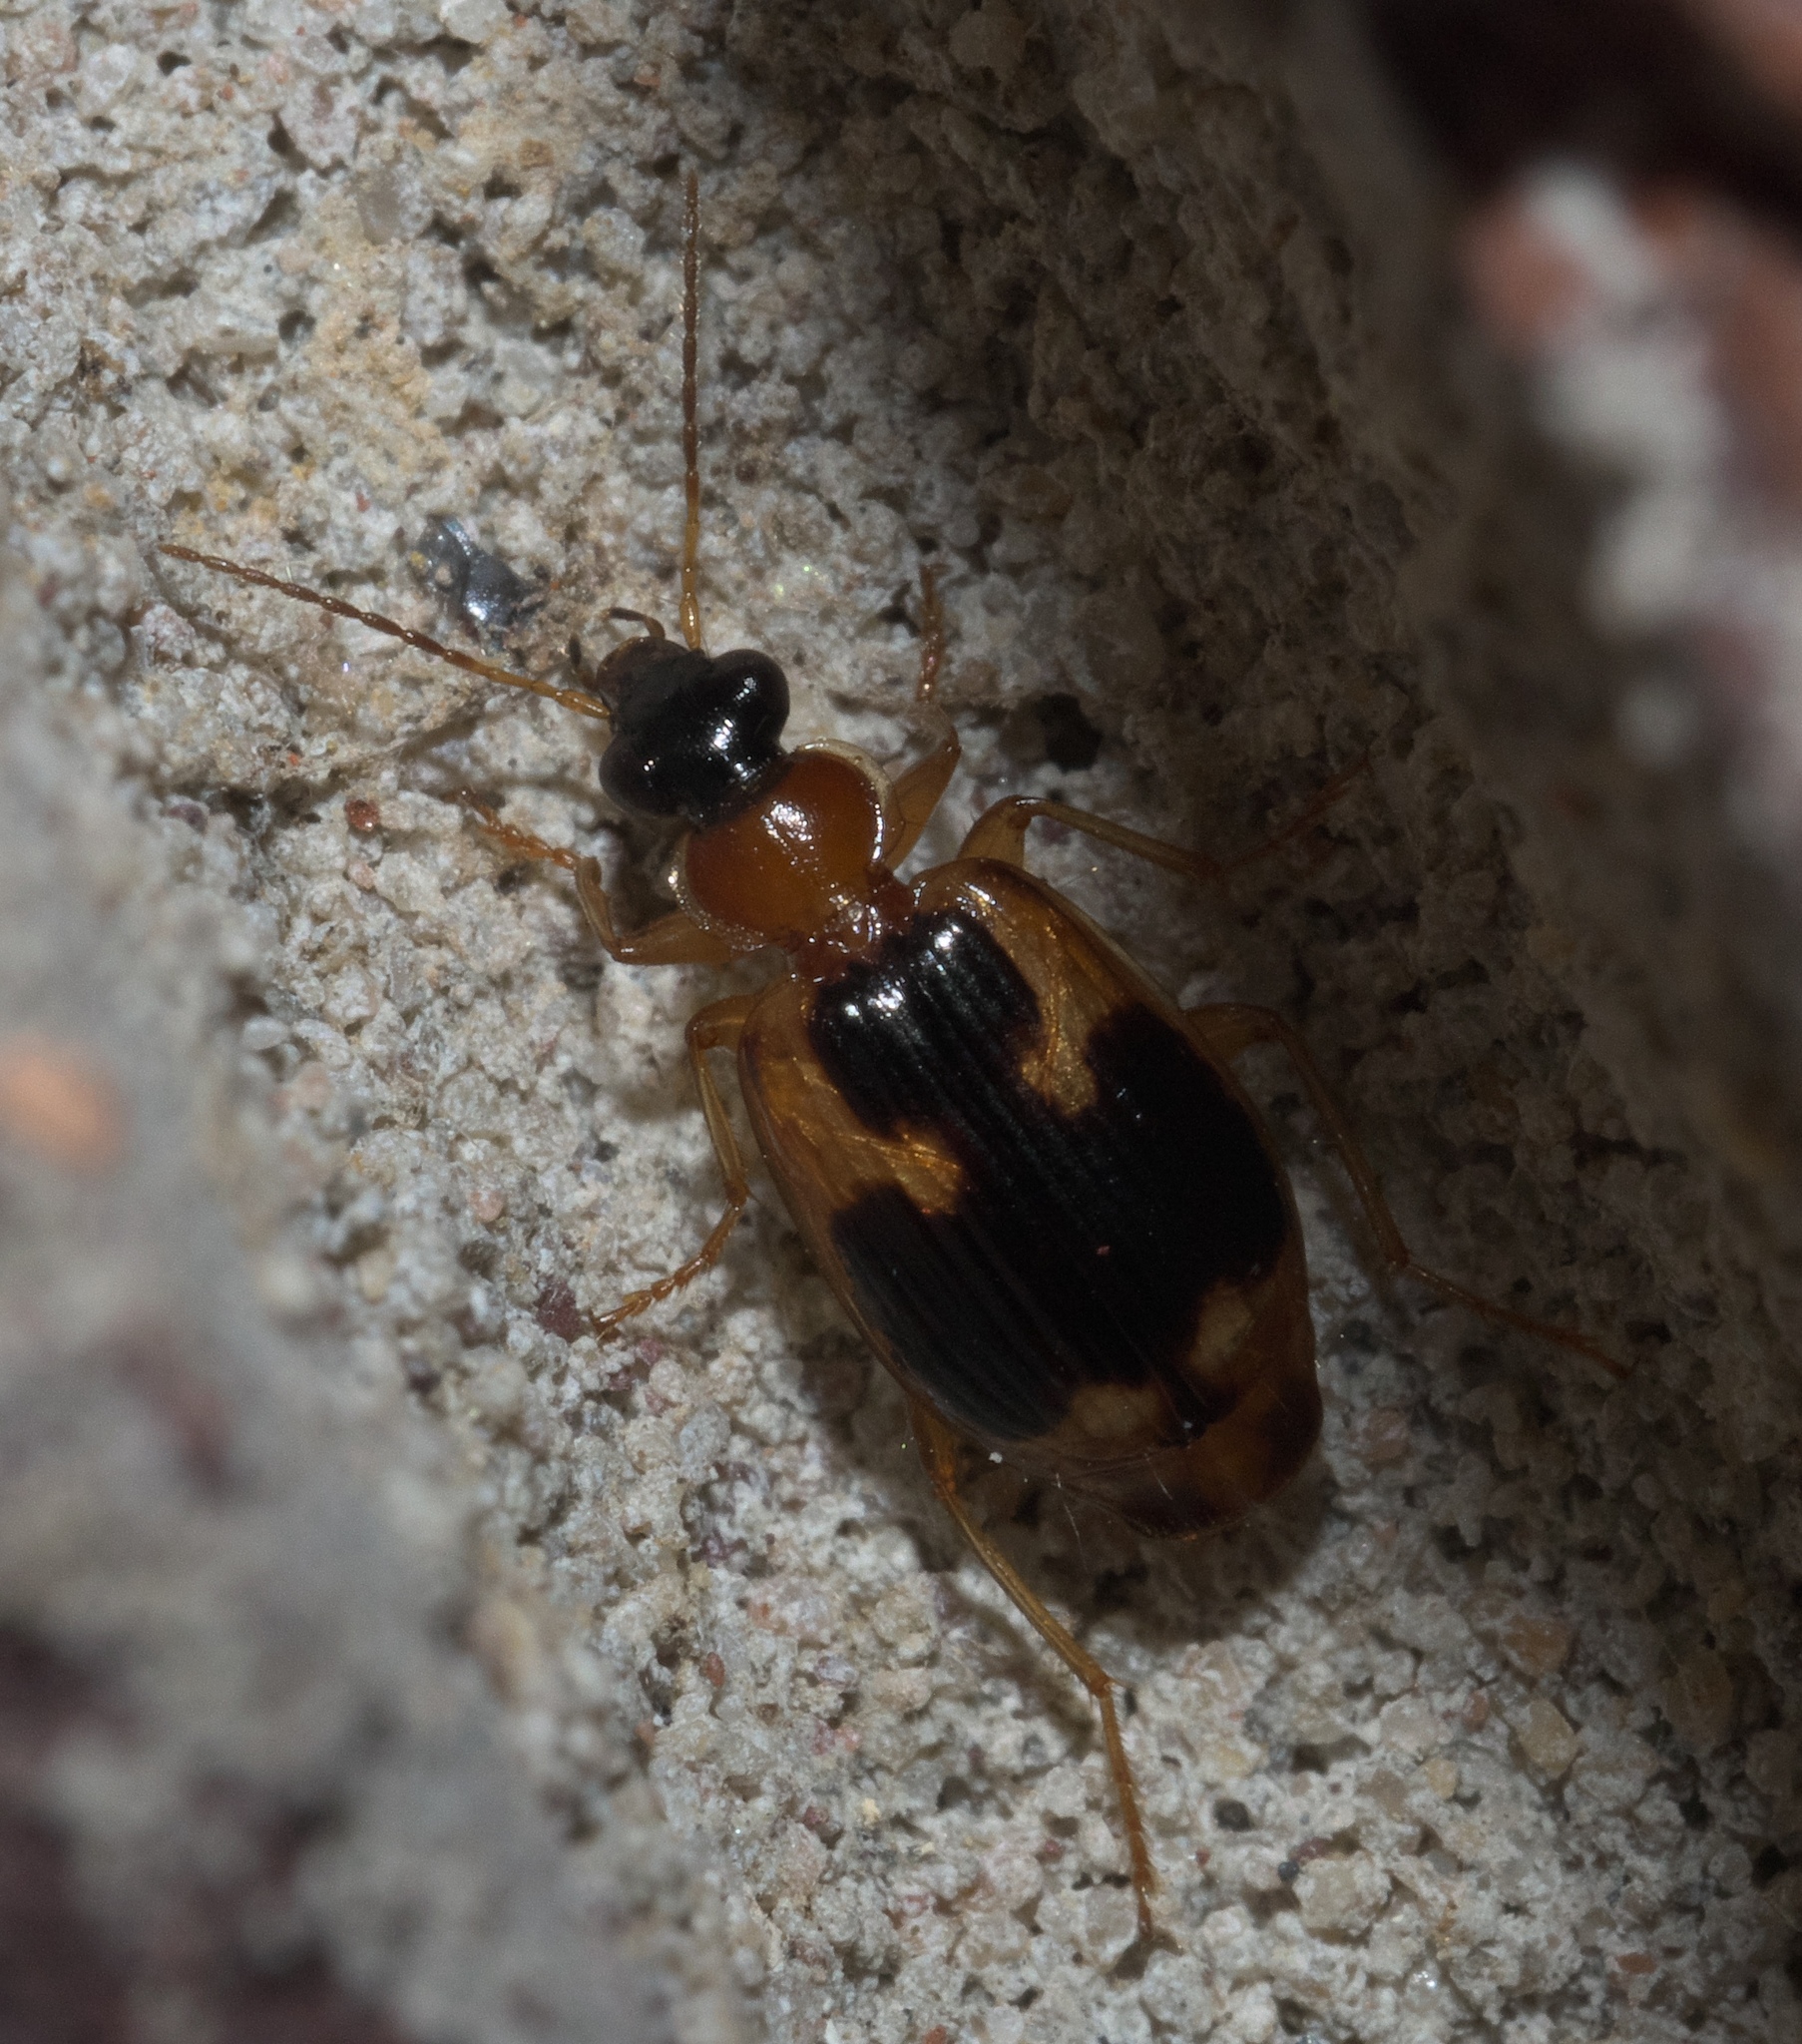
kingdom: Animalia
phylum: Arthropoda
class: Insecta
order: Coleoptera
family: Carabidae
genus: Lebia
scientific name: Lebia analis
